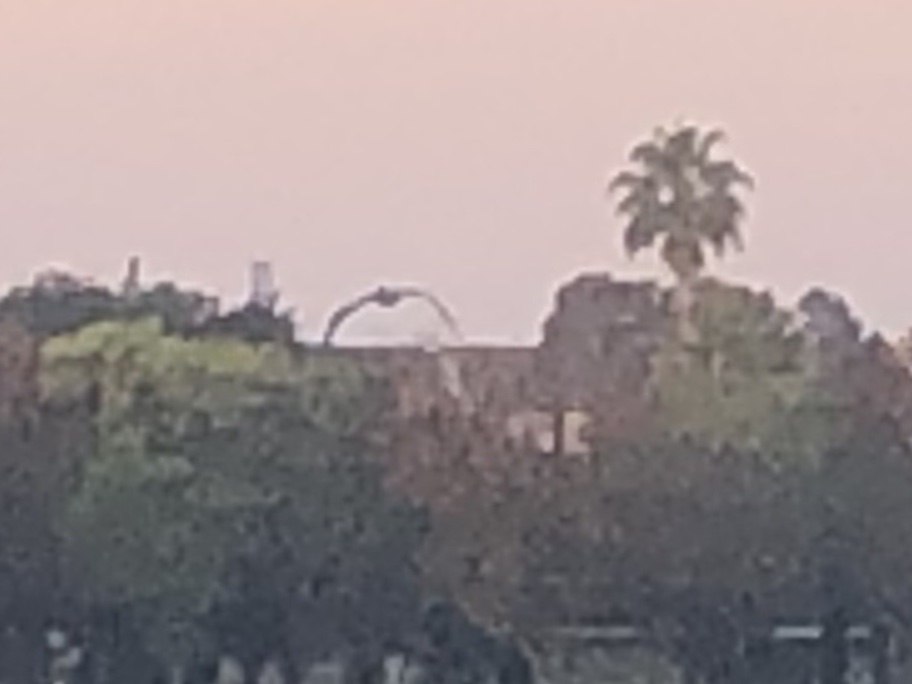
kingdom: Animalia
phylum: Chordata
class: Aves
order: Pelecaniformes
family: Pelecanidae
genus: Pelecanus
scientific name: Pelecanus occidentalis
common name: Brown pelican
